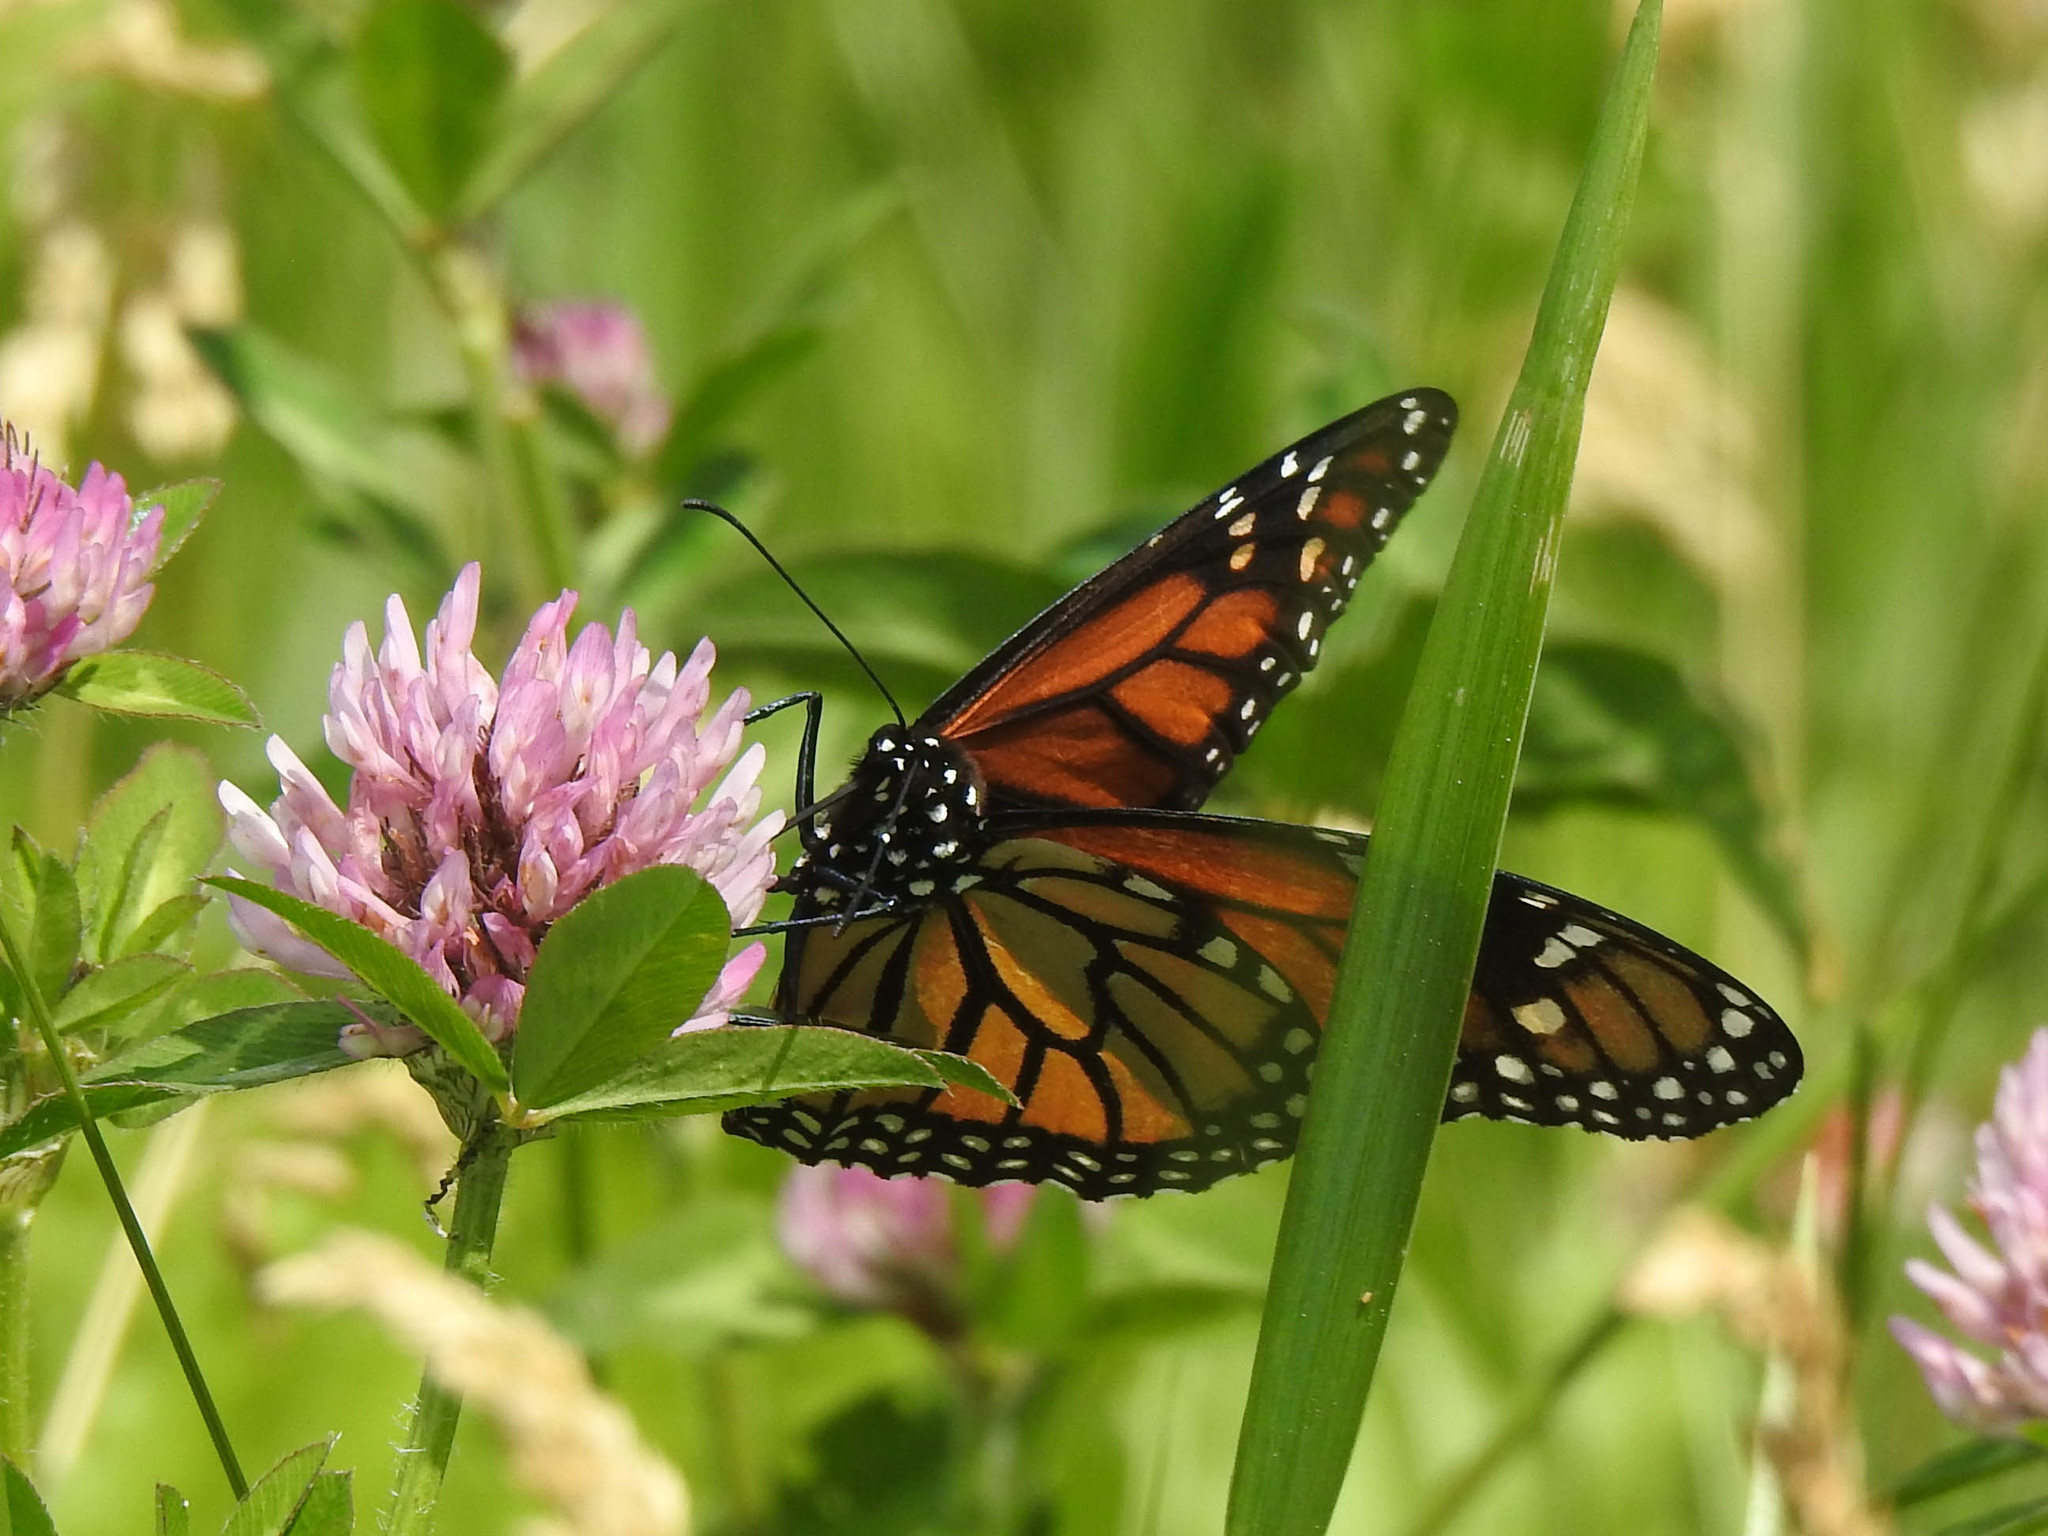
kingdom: Animalia
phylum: Arthropoda
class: Insecta
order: Lepidoptera
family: Nymphalidae
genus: Danaus
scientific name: Danaus plexippus
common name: Monarch
